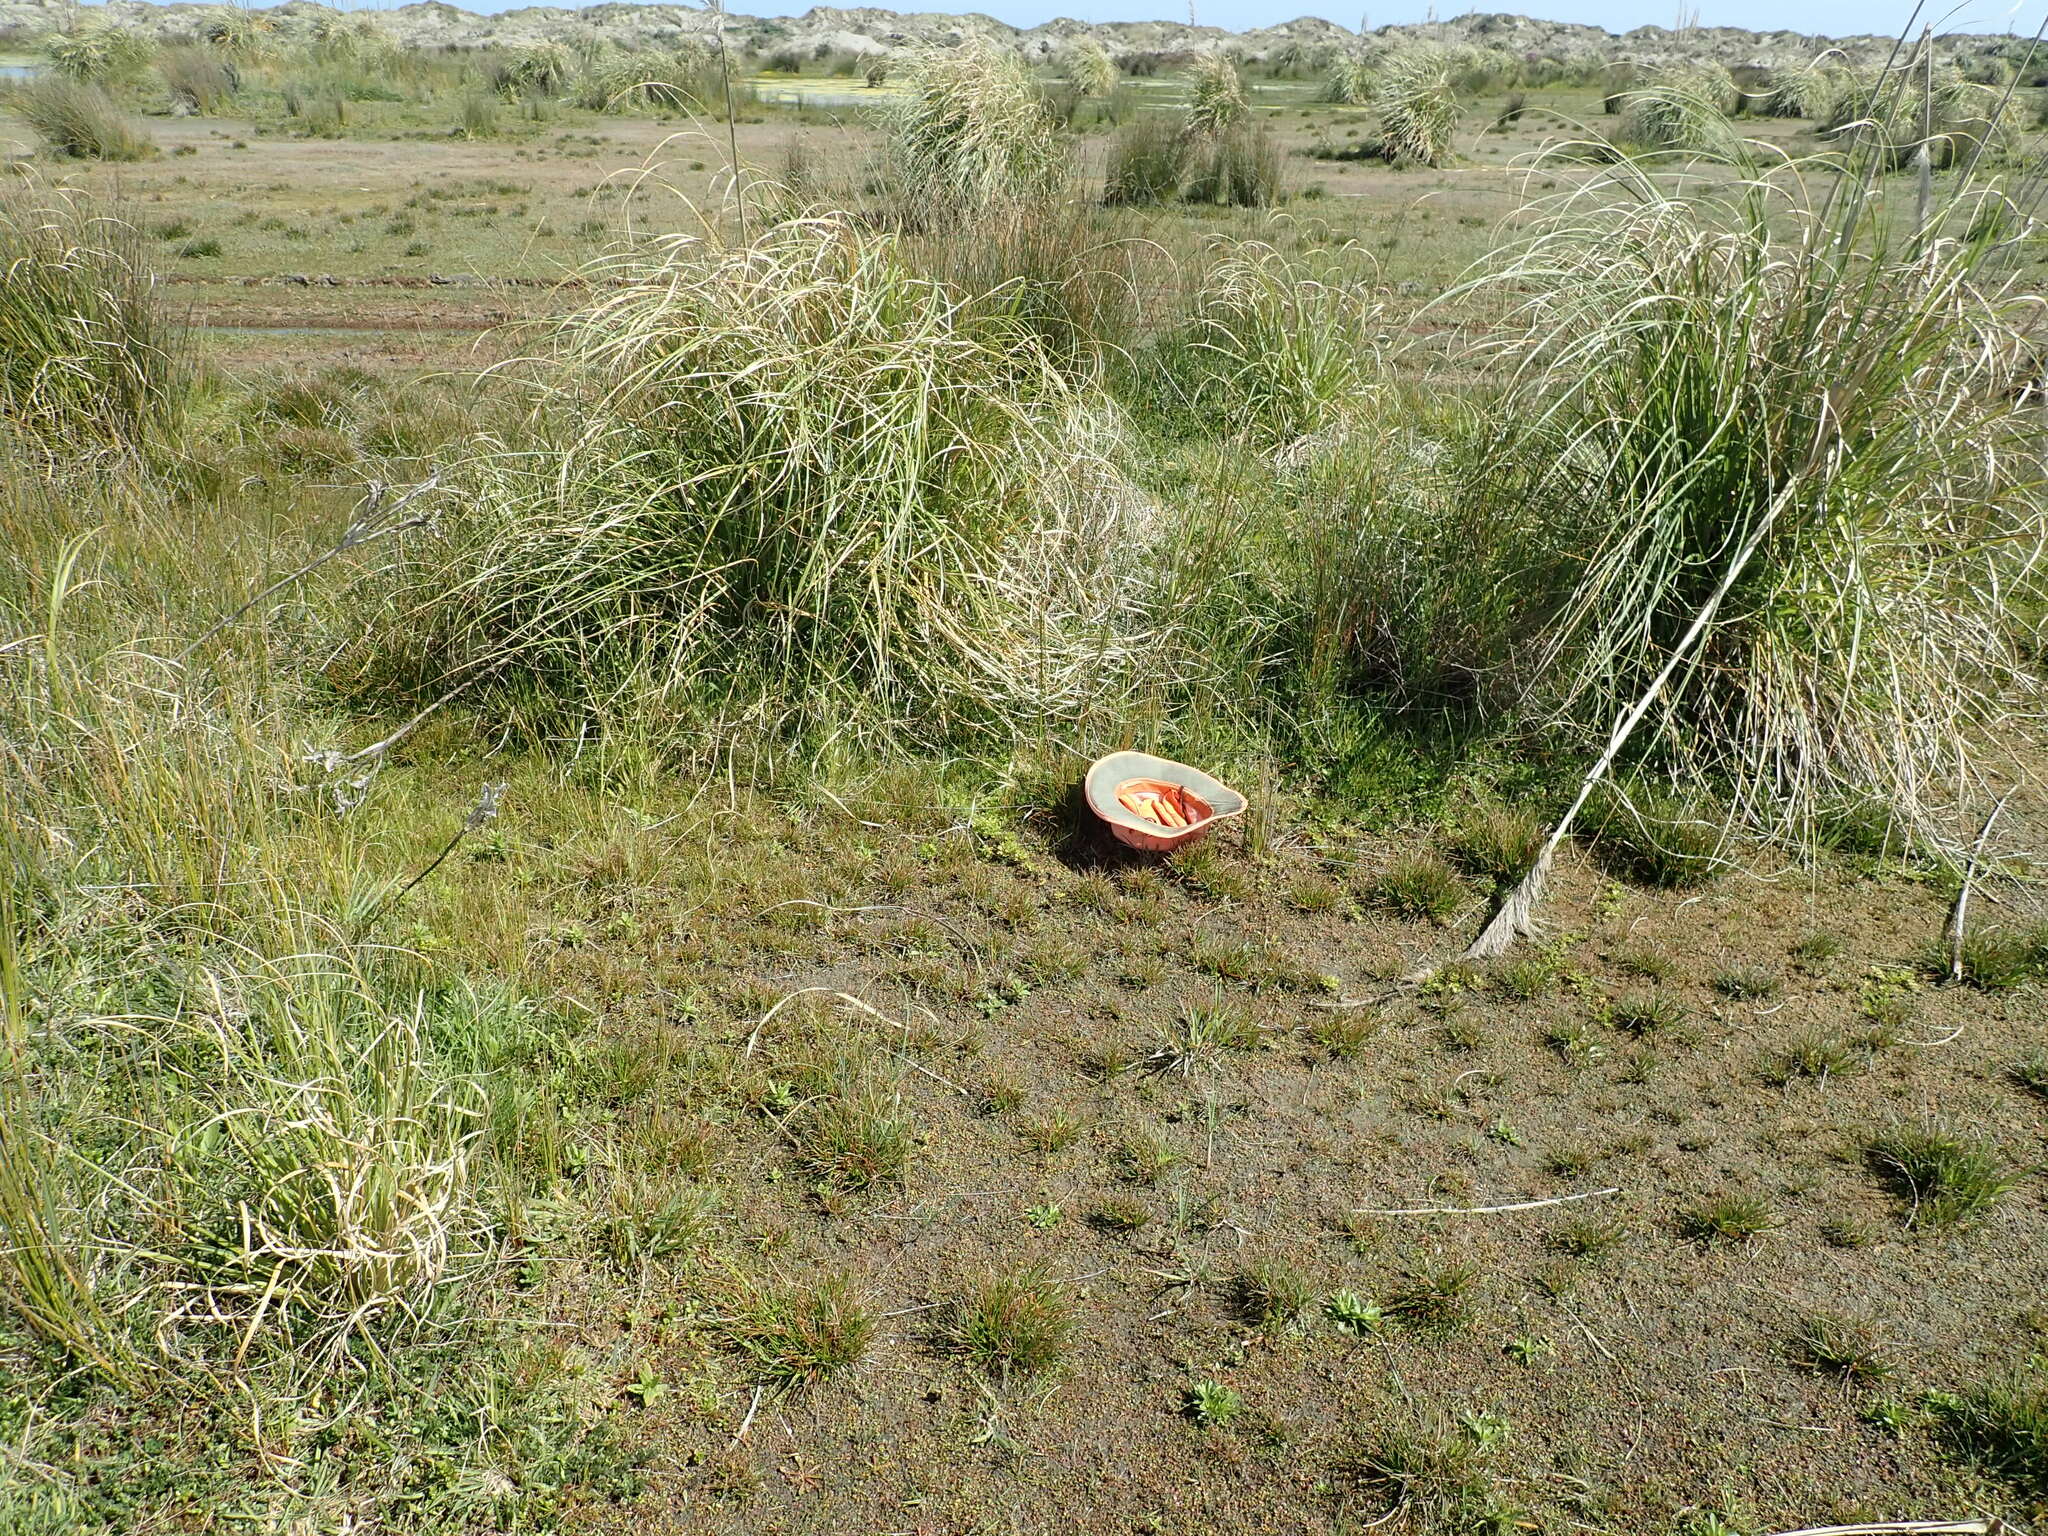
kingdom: Plantae
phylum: Tracheophyta
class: Magnoliopsida
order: Rosales
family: Rosaceae
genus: Acaena
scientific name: Acaena novae-zelandiae
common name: Pirri-pirri-bur
